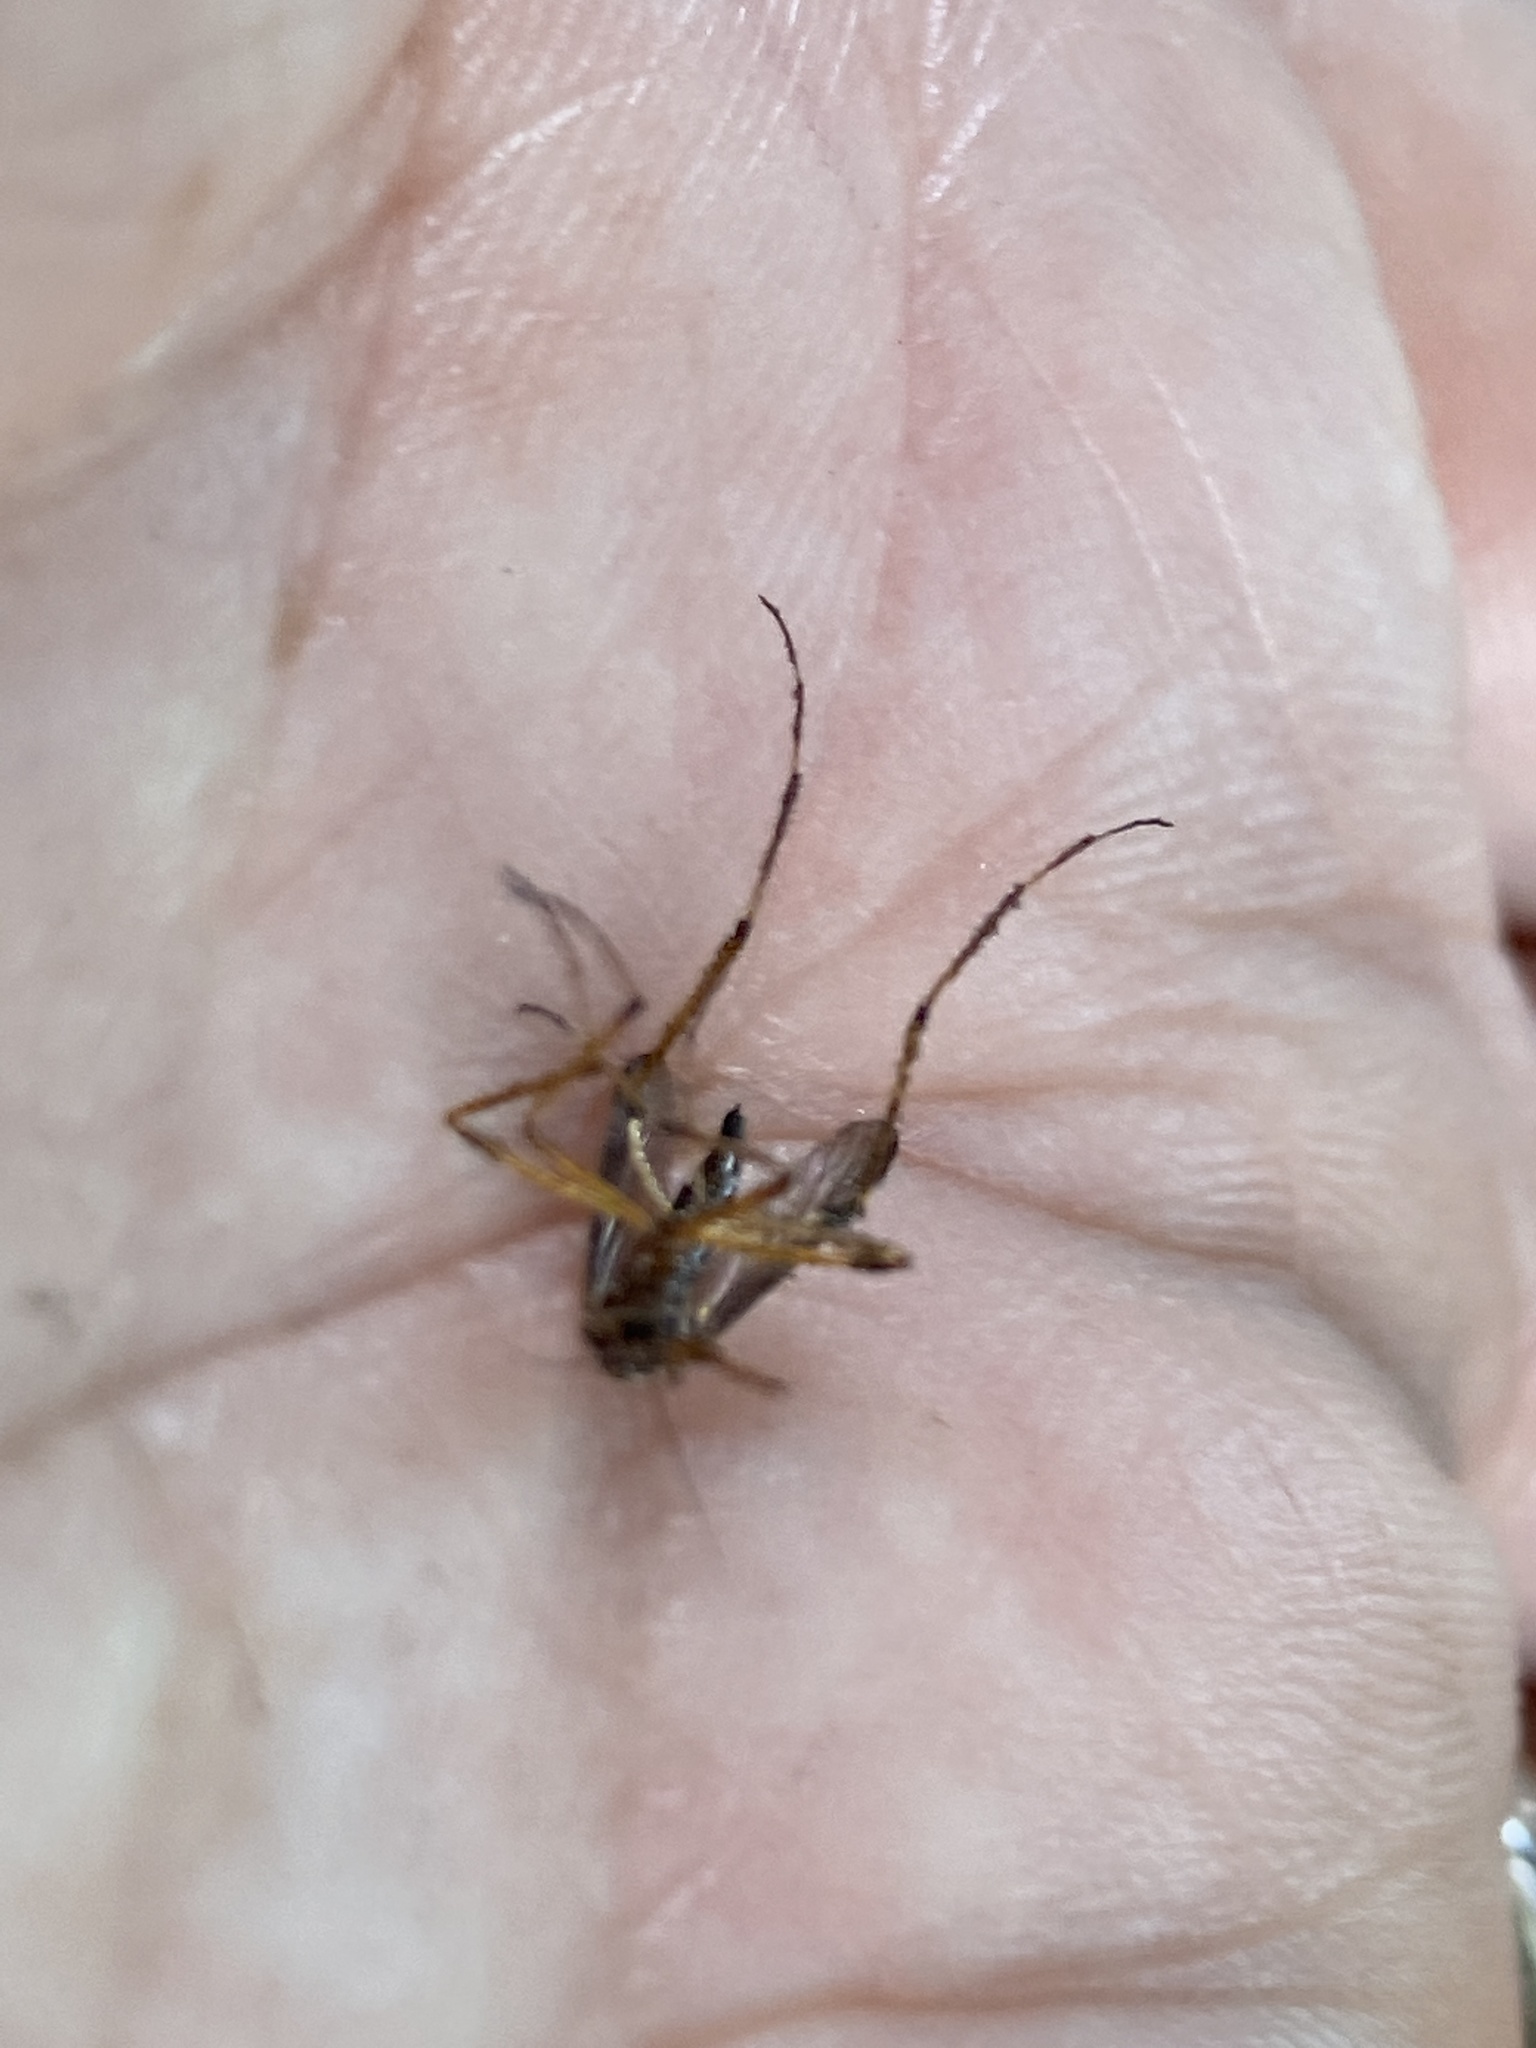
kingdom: Animalia
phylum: Arthropoda
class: Insecta
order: Diptera
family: Culicidae
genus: Psorophora
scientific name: Psorophora ciliata
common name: Gallinipper
